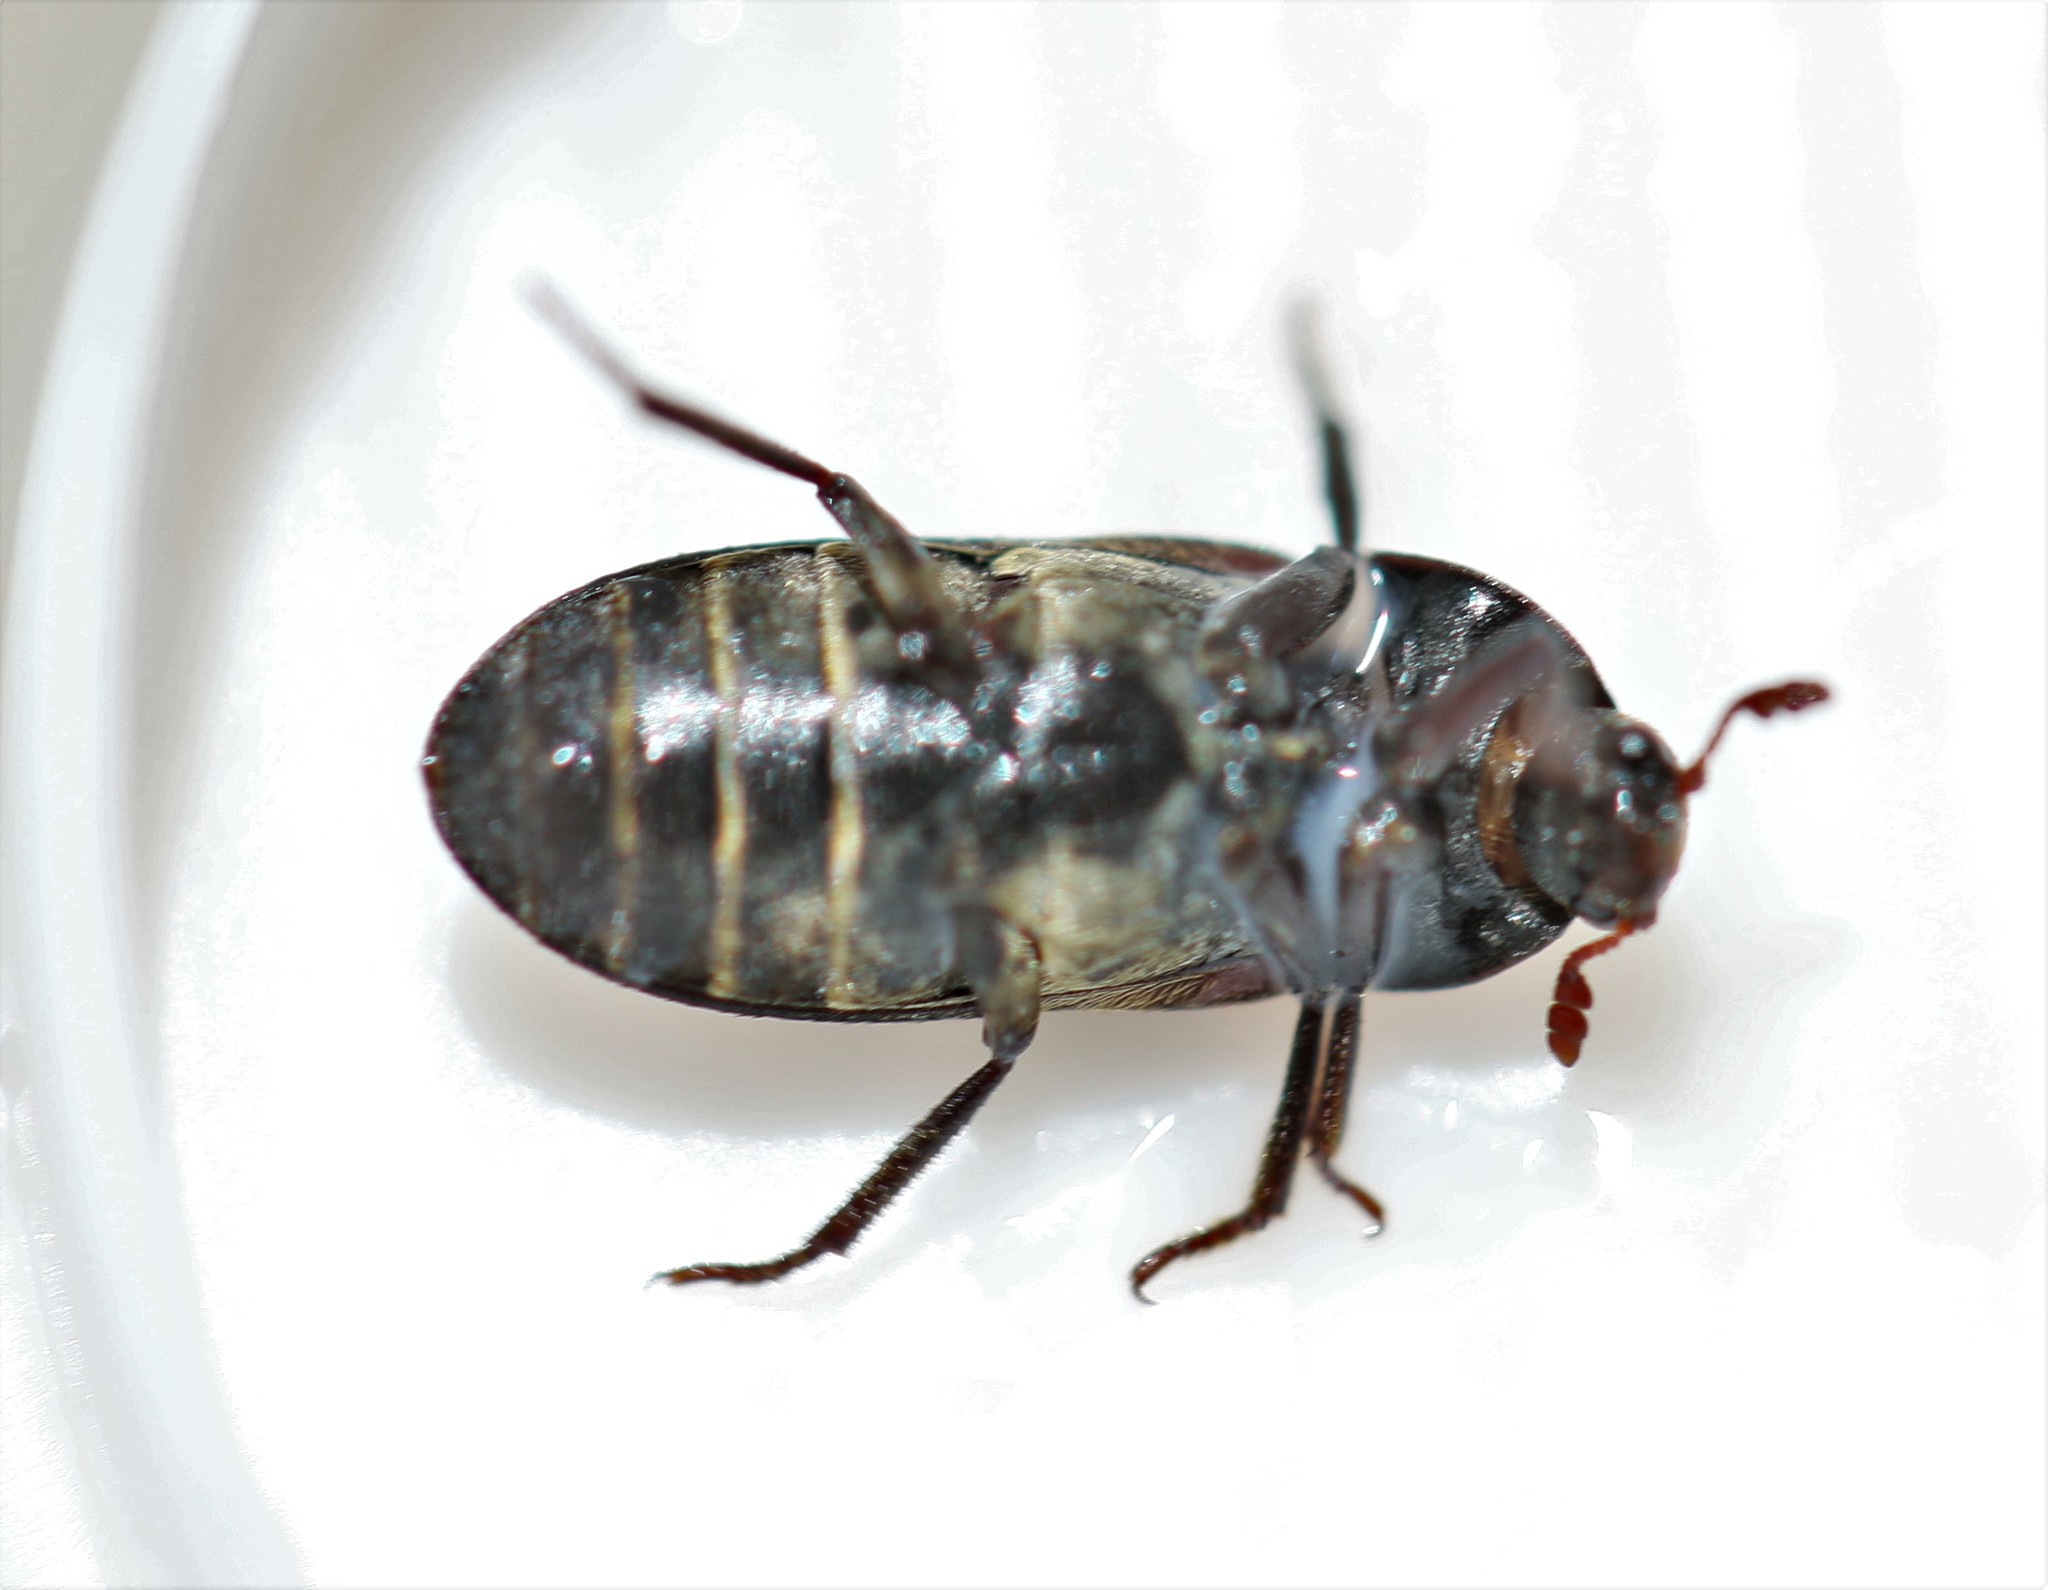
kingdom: Animalia
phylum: Arthropoda
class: Insecta
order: Coleoptera
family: Dermestidae
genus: Dermestes
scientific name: Dermestes lardarius
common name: Larder beetle
